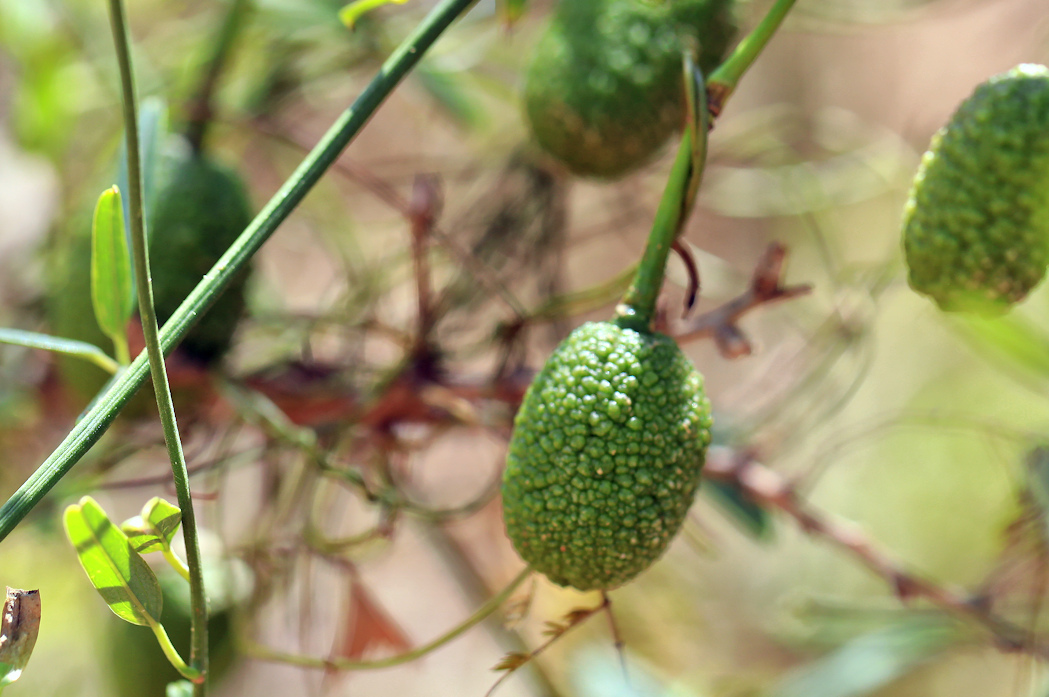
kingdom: Plantae
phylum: Tracheophyta
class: Magnoliopsida
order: Brassicales
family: Capparaceae
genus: Maerua
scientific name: Maerua juncea
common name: Rough-skinned bush cherry
